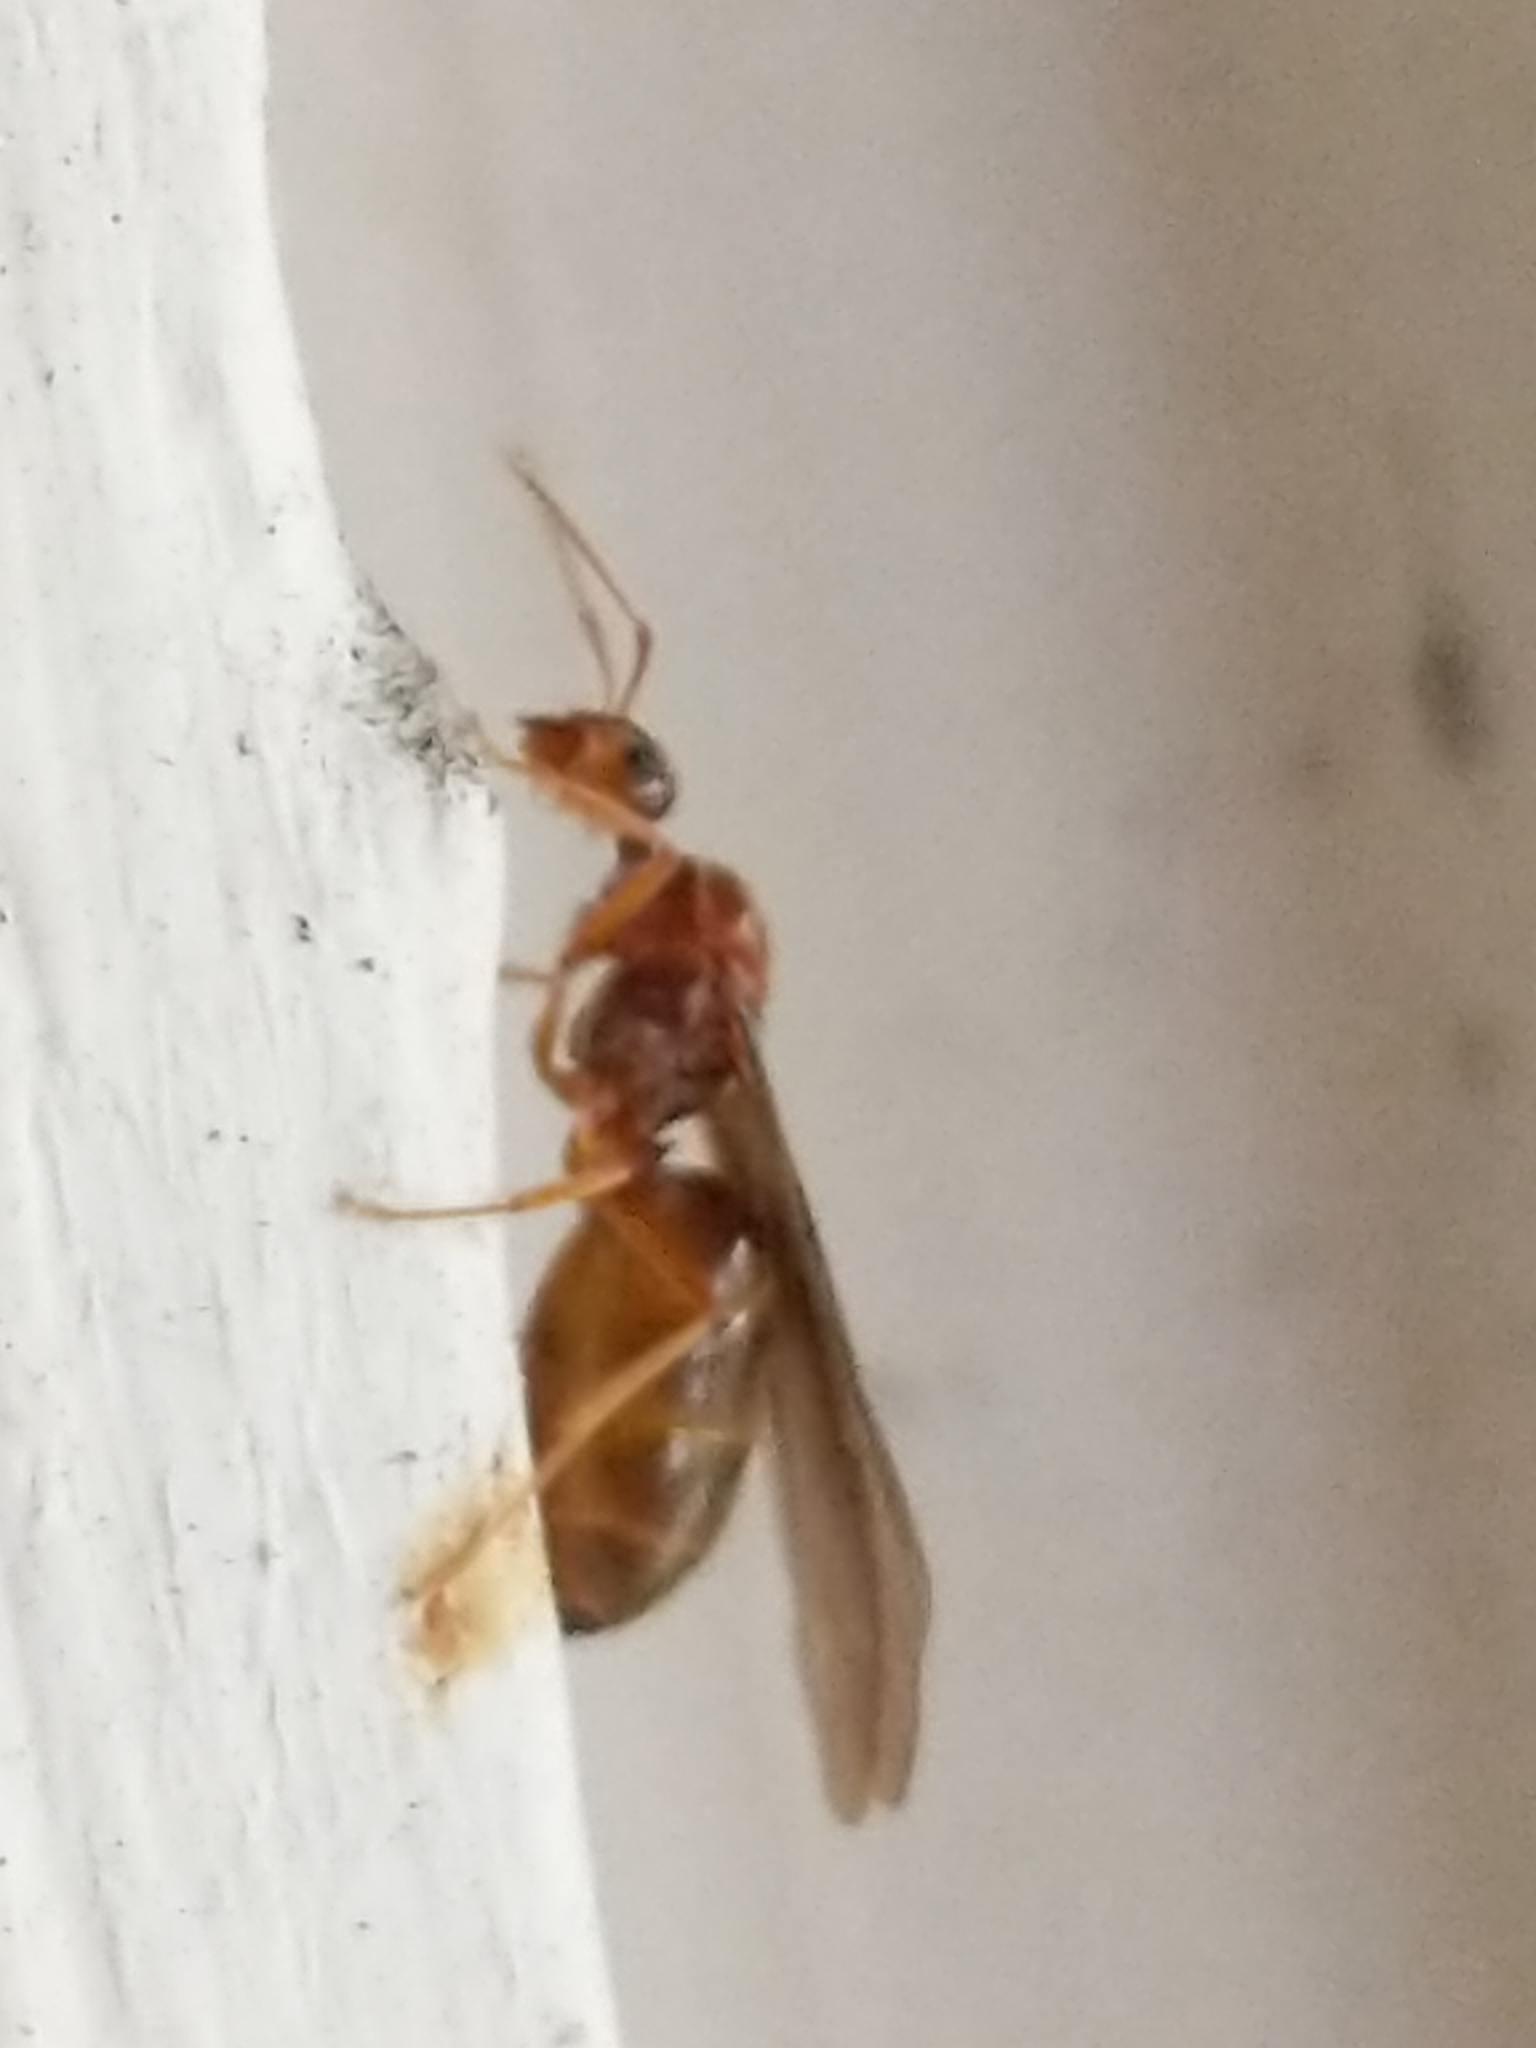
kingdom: Animalia
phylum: Arthropoda
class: Insecta
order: Hymenoptera
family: Formicidae
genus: Prenolepis
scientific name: Prenolepis imparis
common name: Small honey ant
